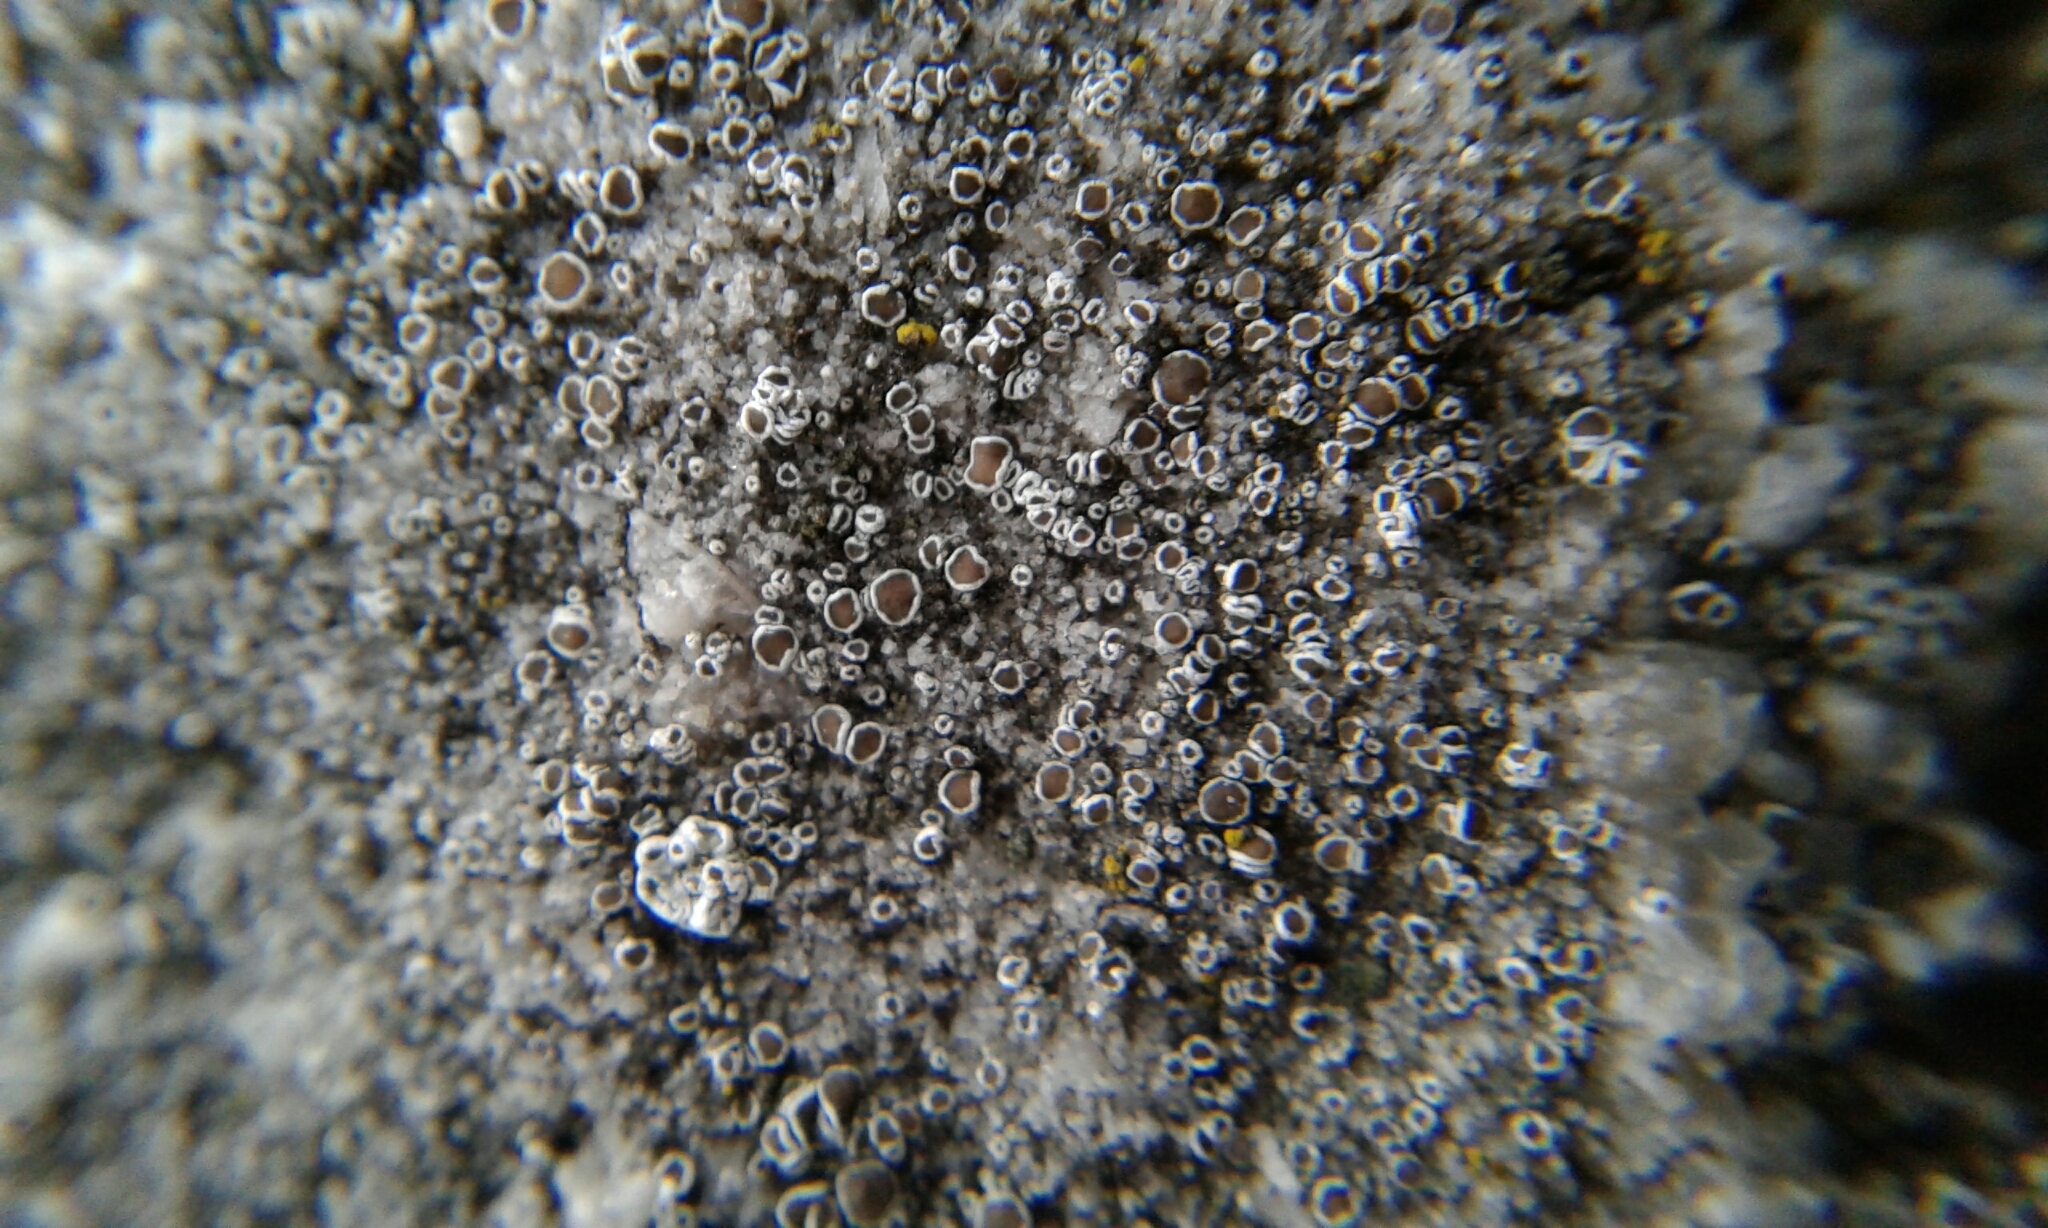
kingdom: Fungi
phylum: Ascomycota
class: Lecanoromycetes
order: Lecanorales
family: Lecanoraceae
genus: Polyozosia
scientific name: Polyozosia dispersa
